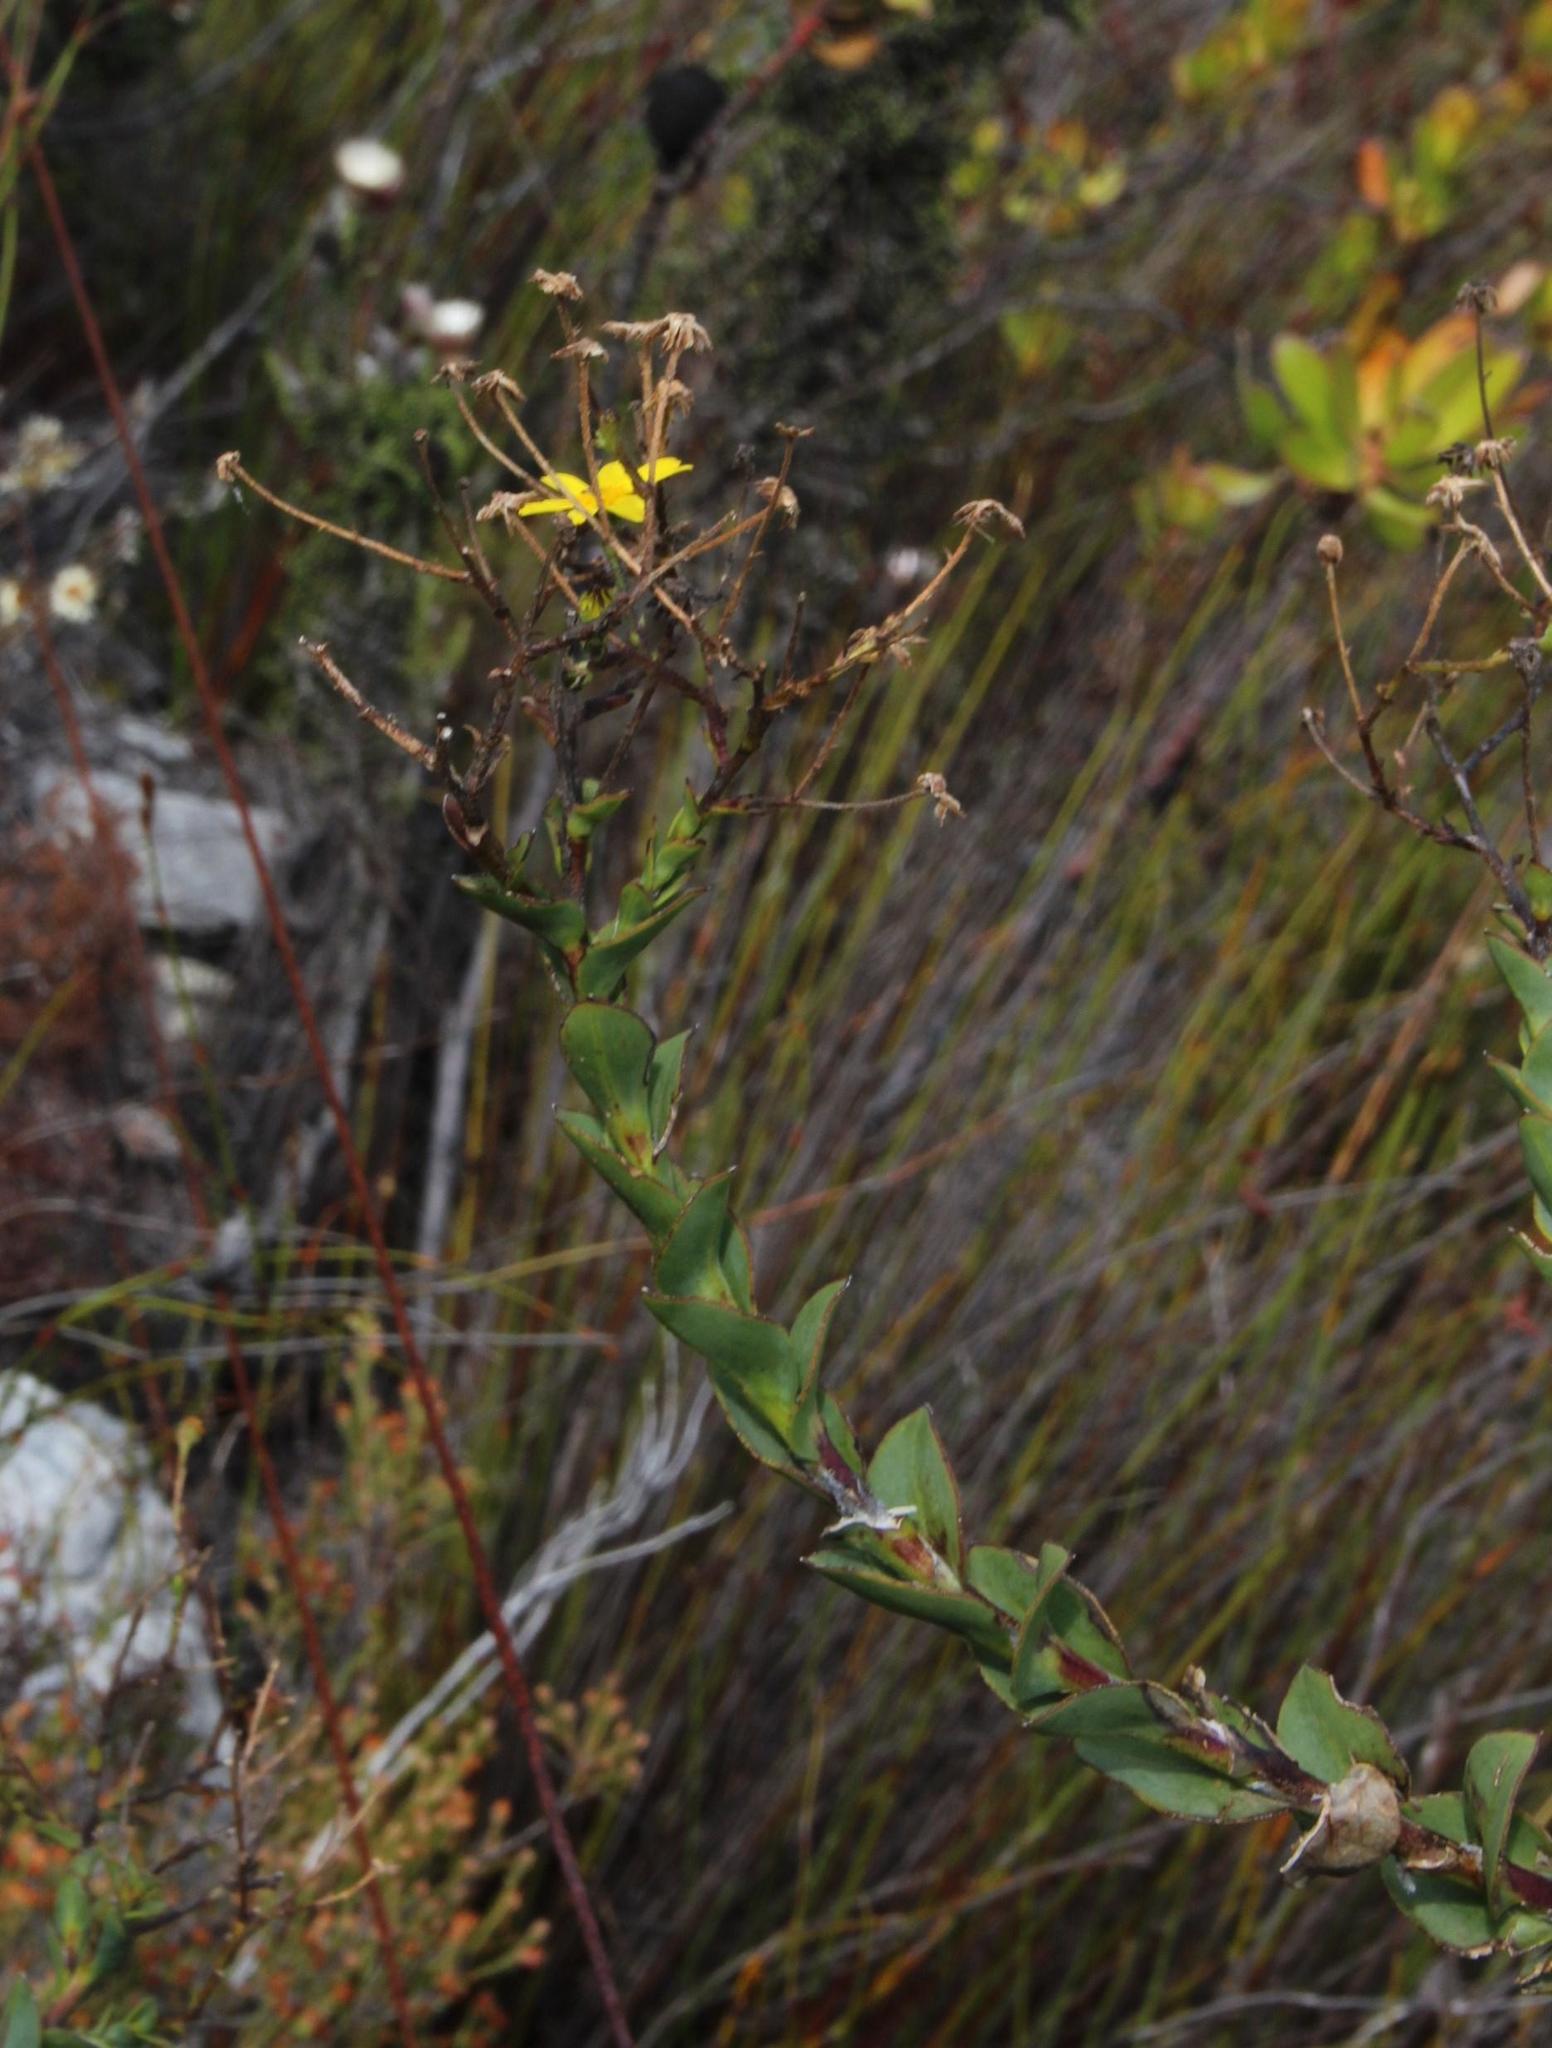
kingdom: Plantae
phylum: Tracheophyta
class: Magnoliopsida
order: Asterales
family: Asteraceae
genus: Osteospermum
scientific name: Osteospermum rotundifolium
